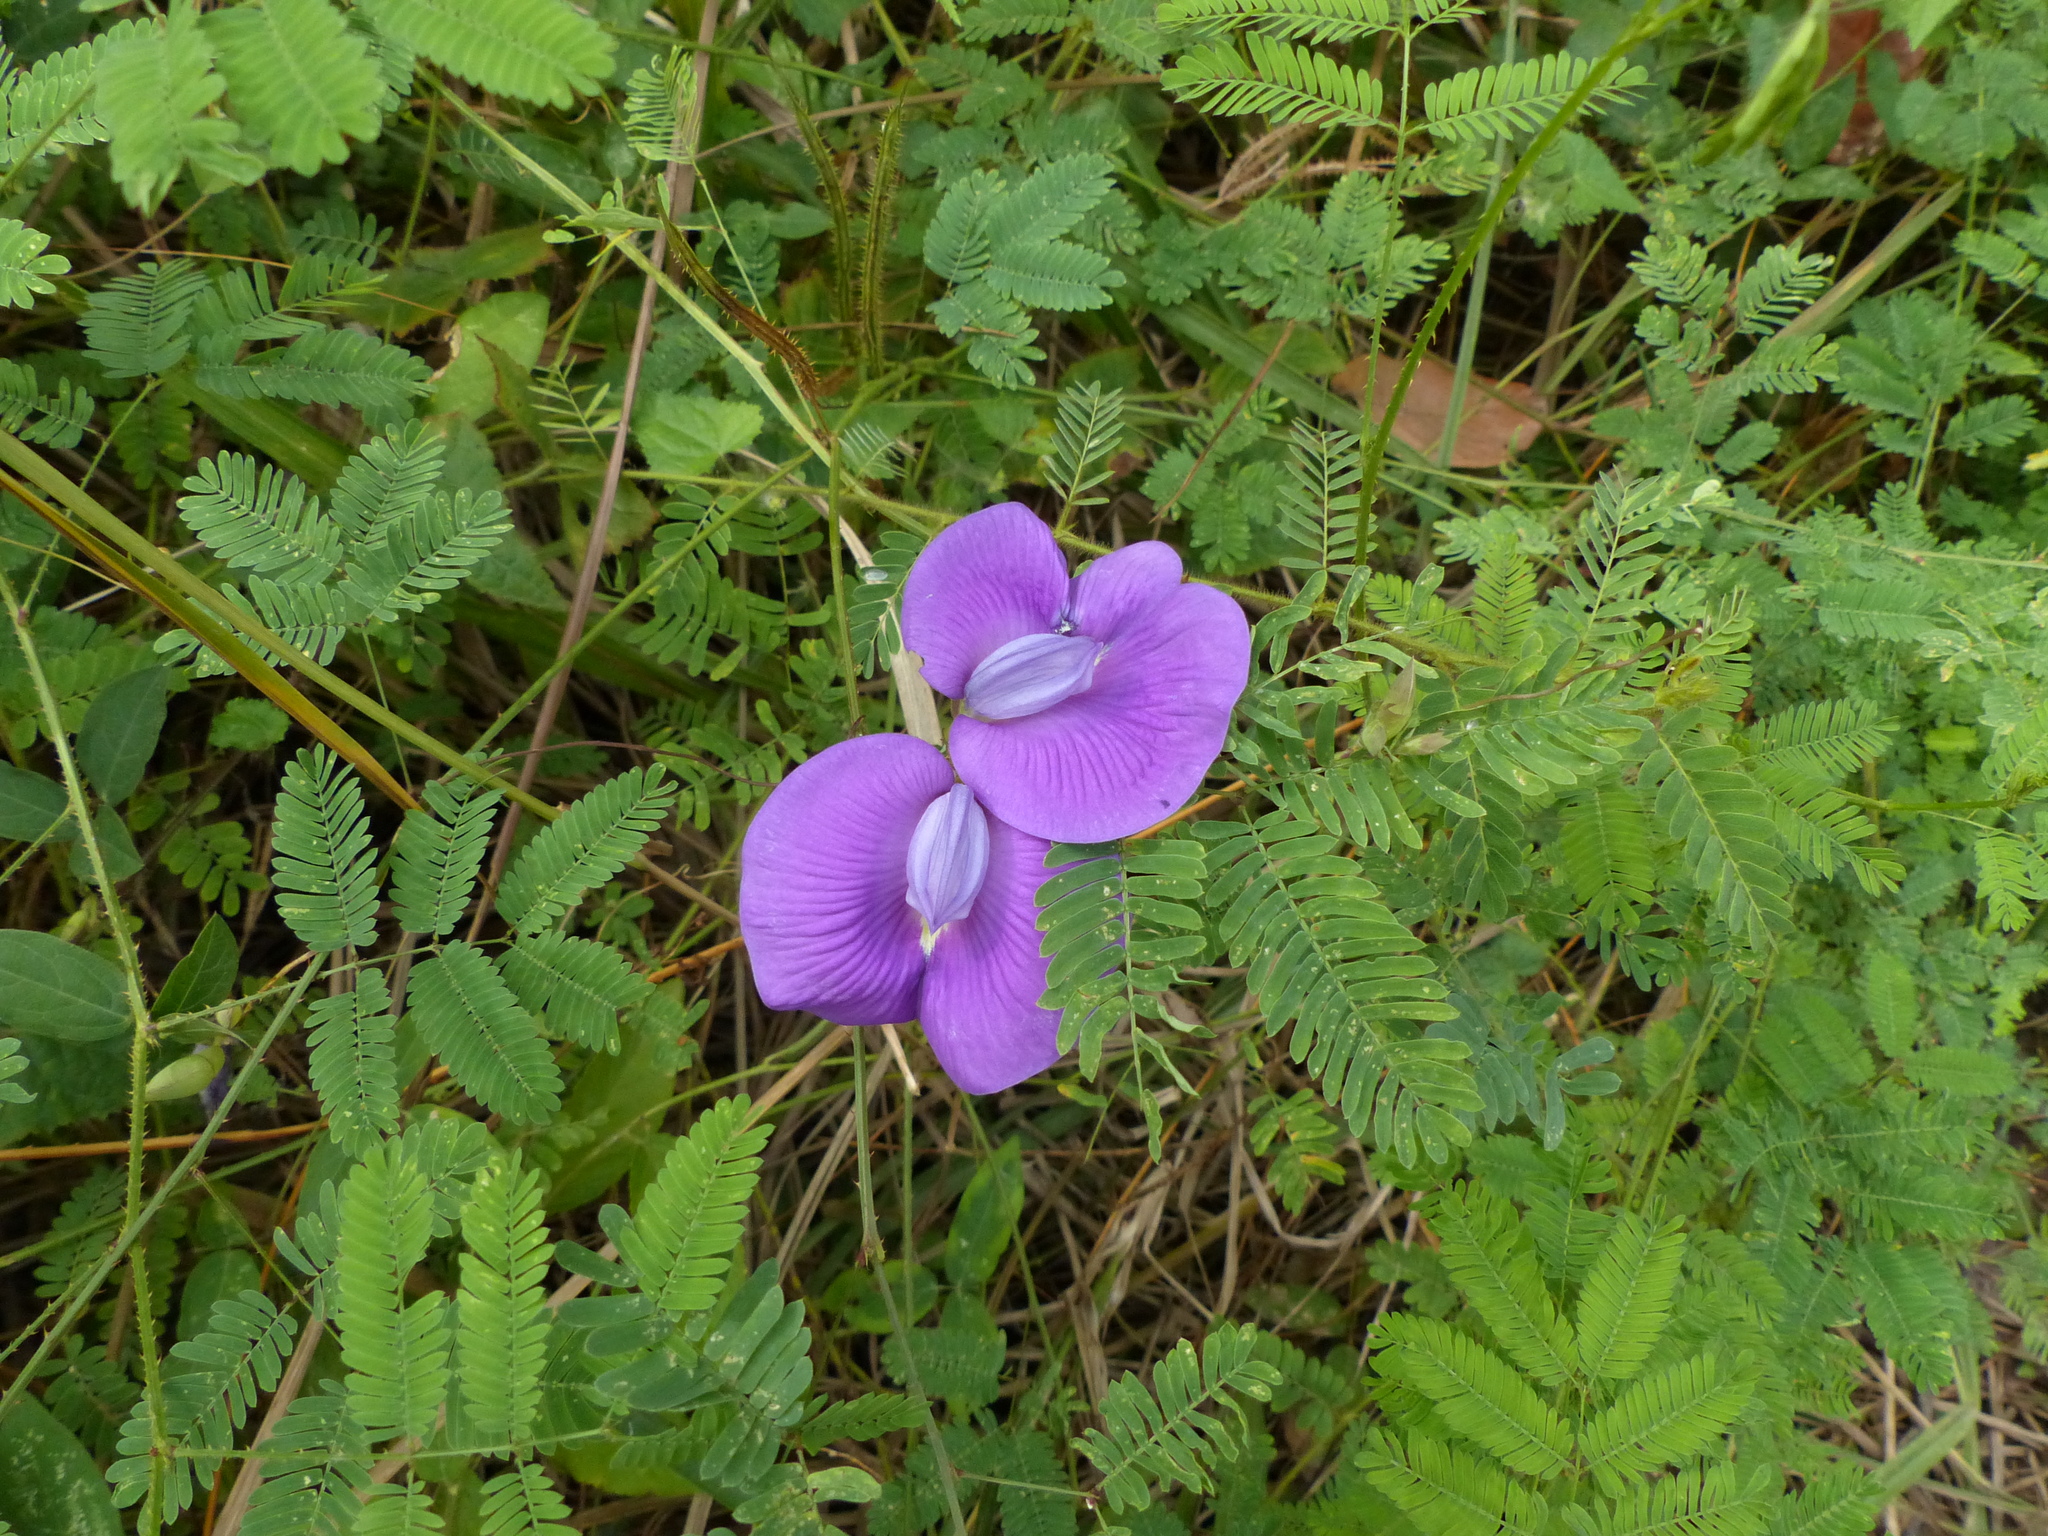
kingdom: Plantae
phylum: Tracheophyta
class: Magnoliopsida
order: Fabales
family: Fabaceae
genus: Centrosema
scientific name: Centrosema brasilianum
